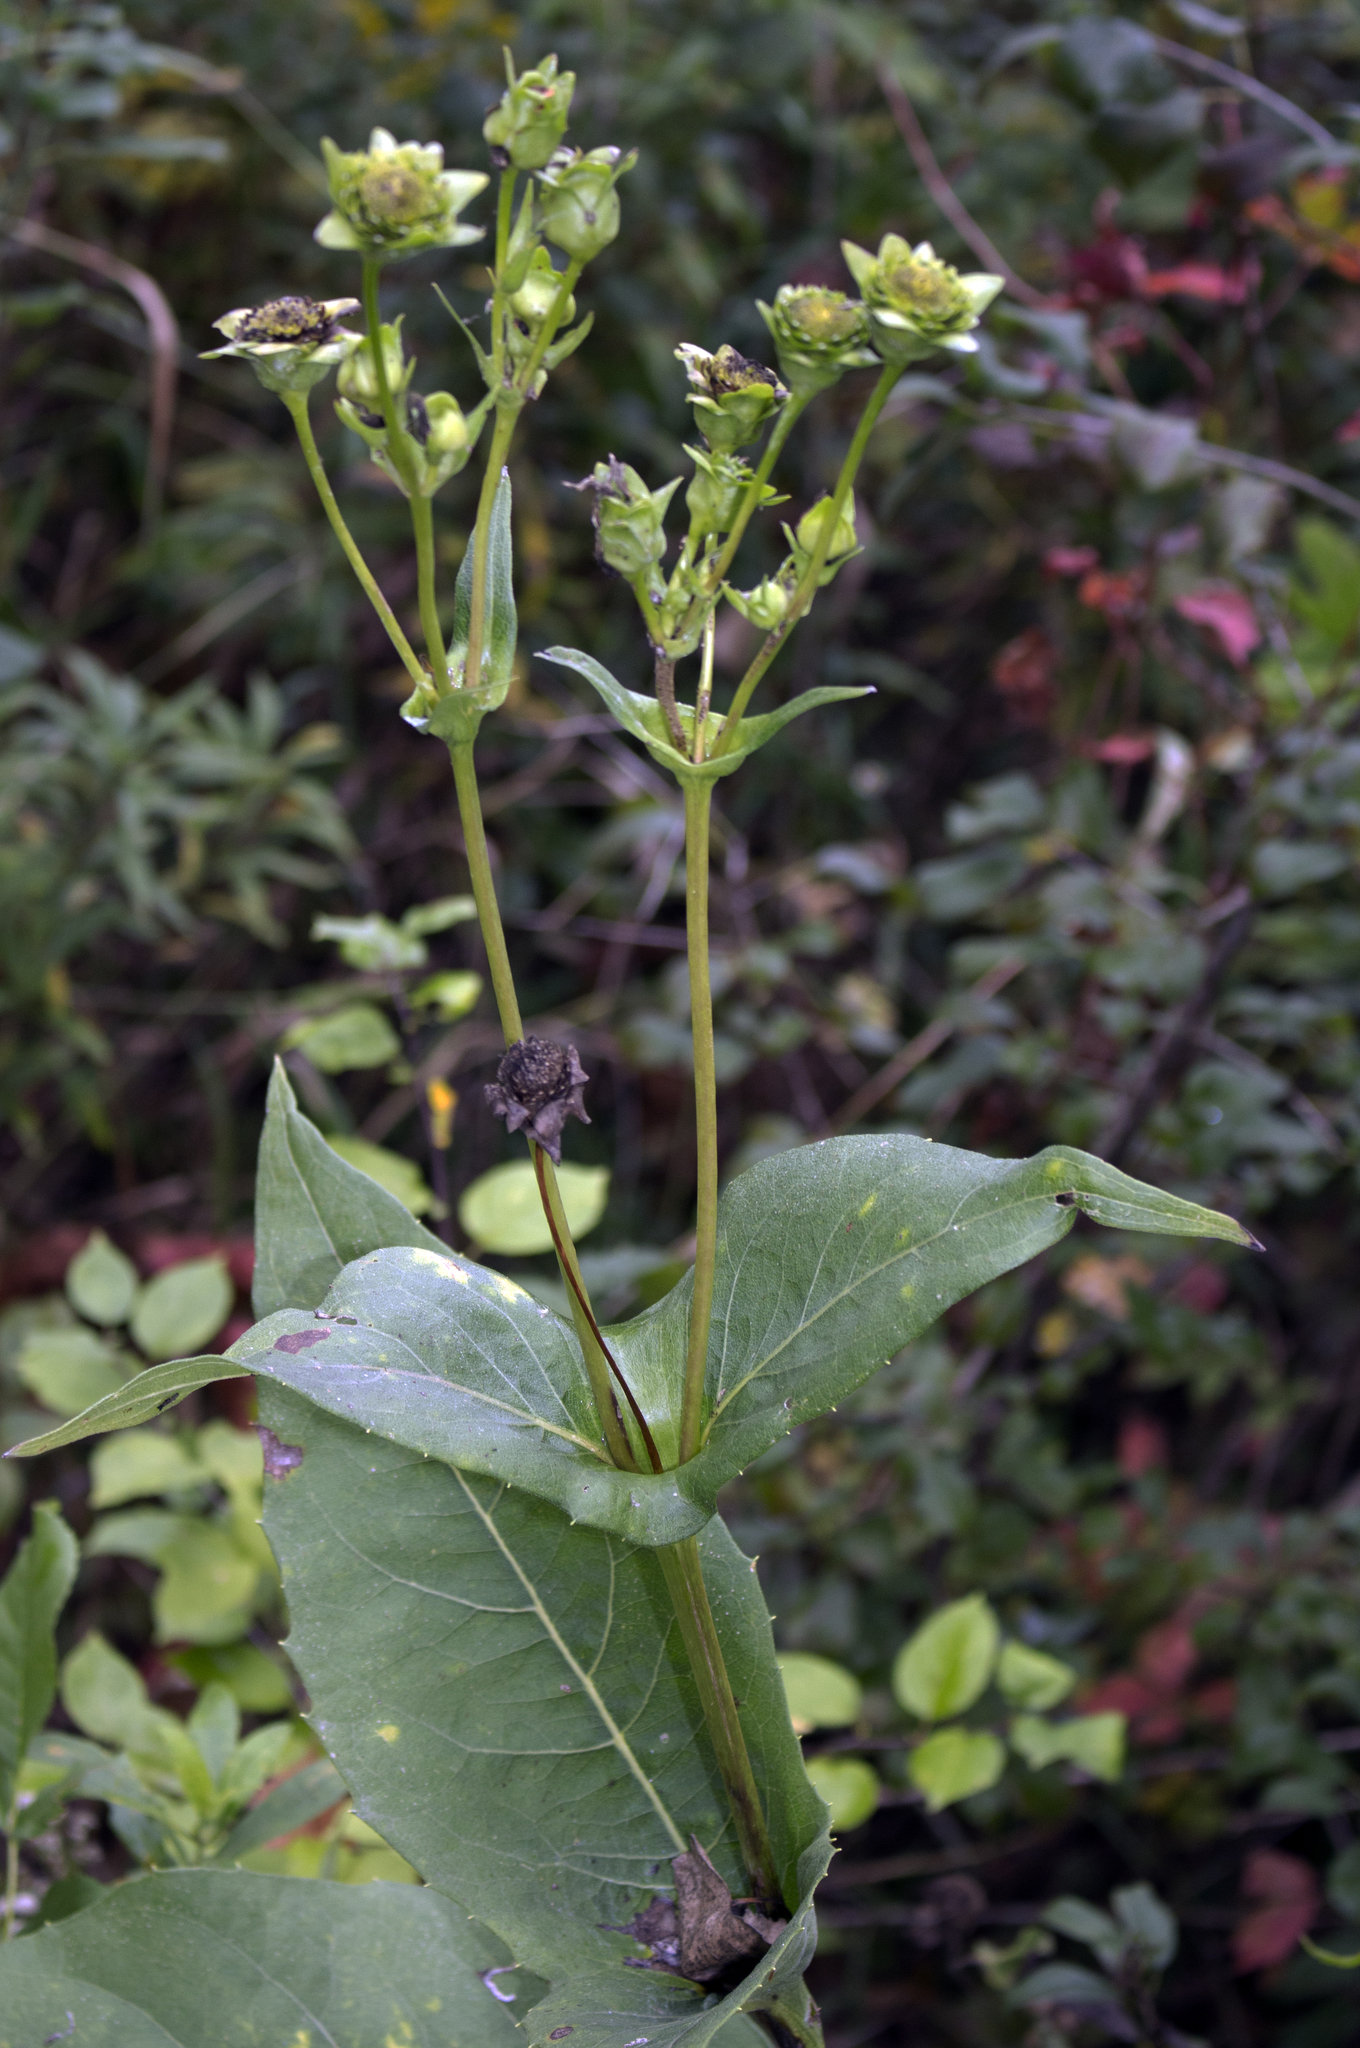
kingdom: Plantae
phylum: Tracheophyta
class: Magnoliopsida
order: Asterales
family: Asteraceae
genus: Silphium
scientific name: Silphium perfoliatum
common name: Cup-plant
